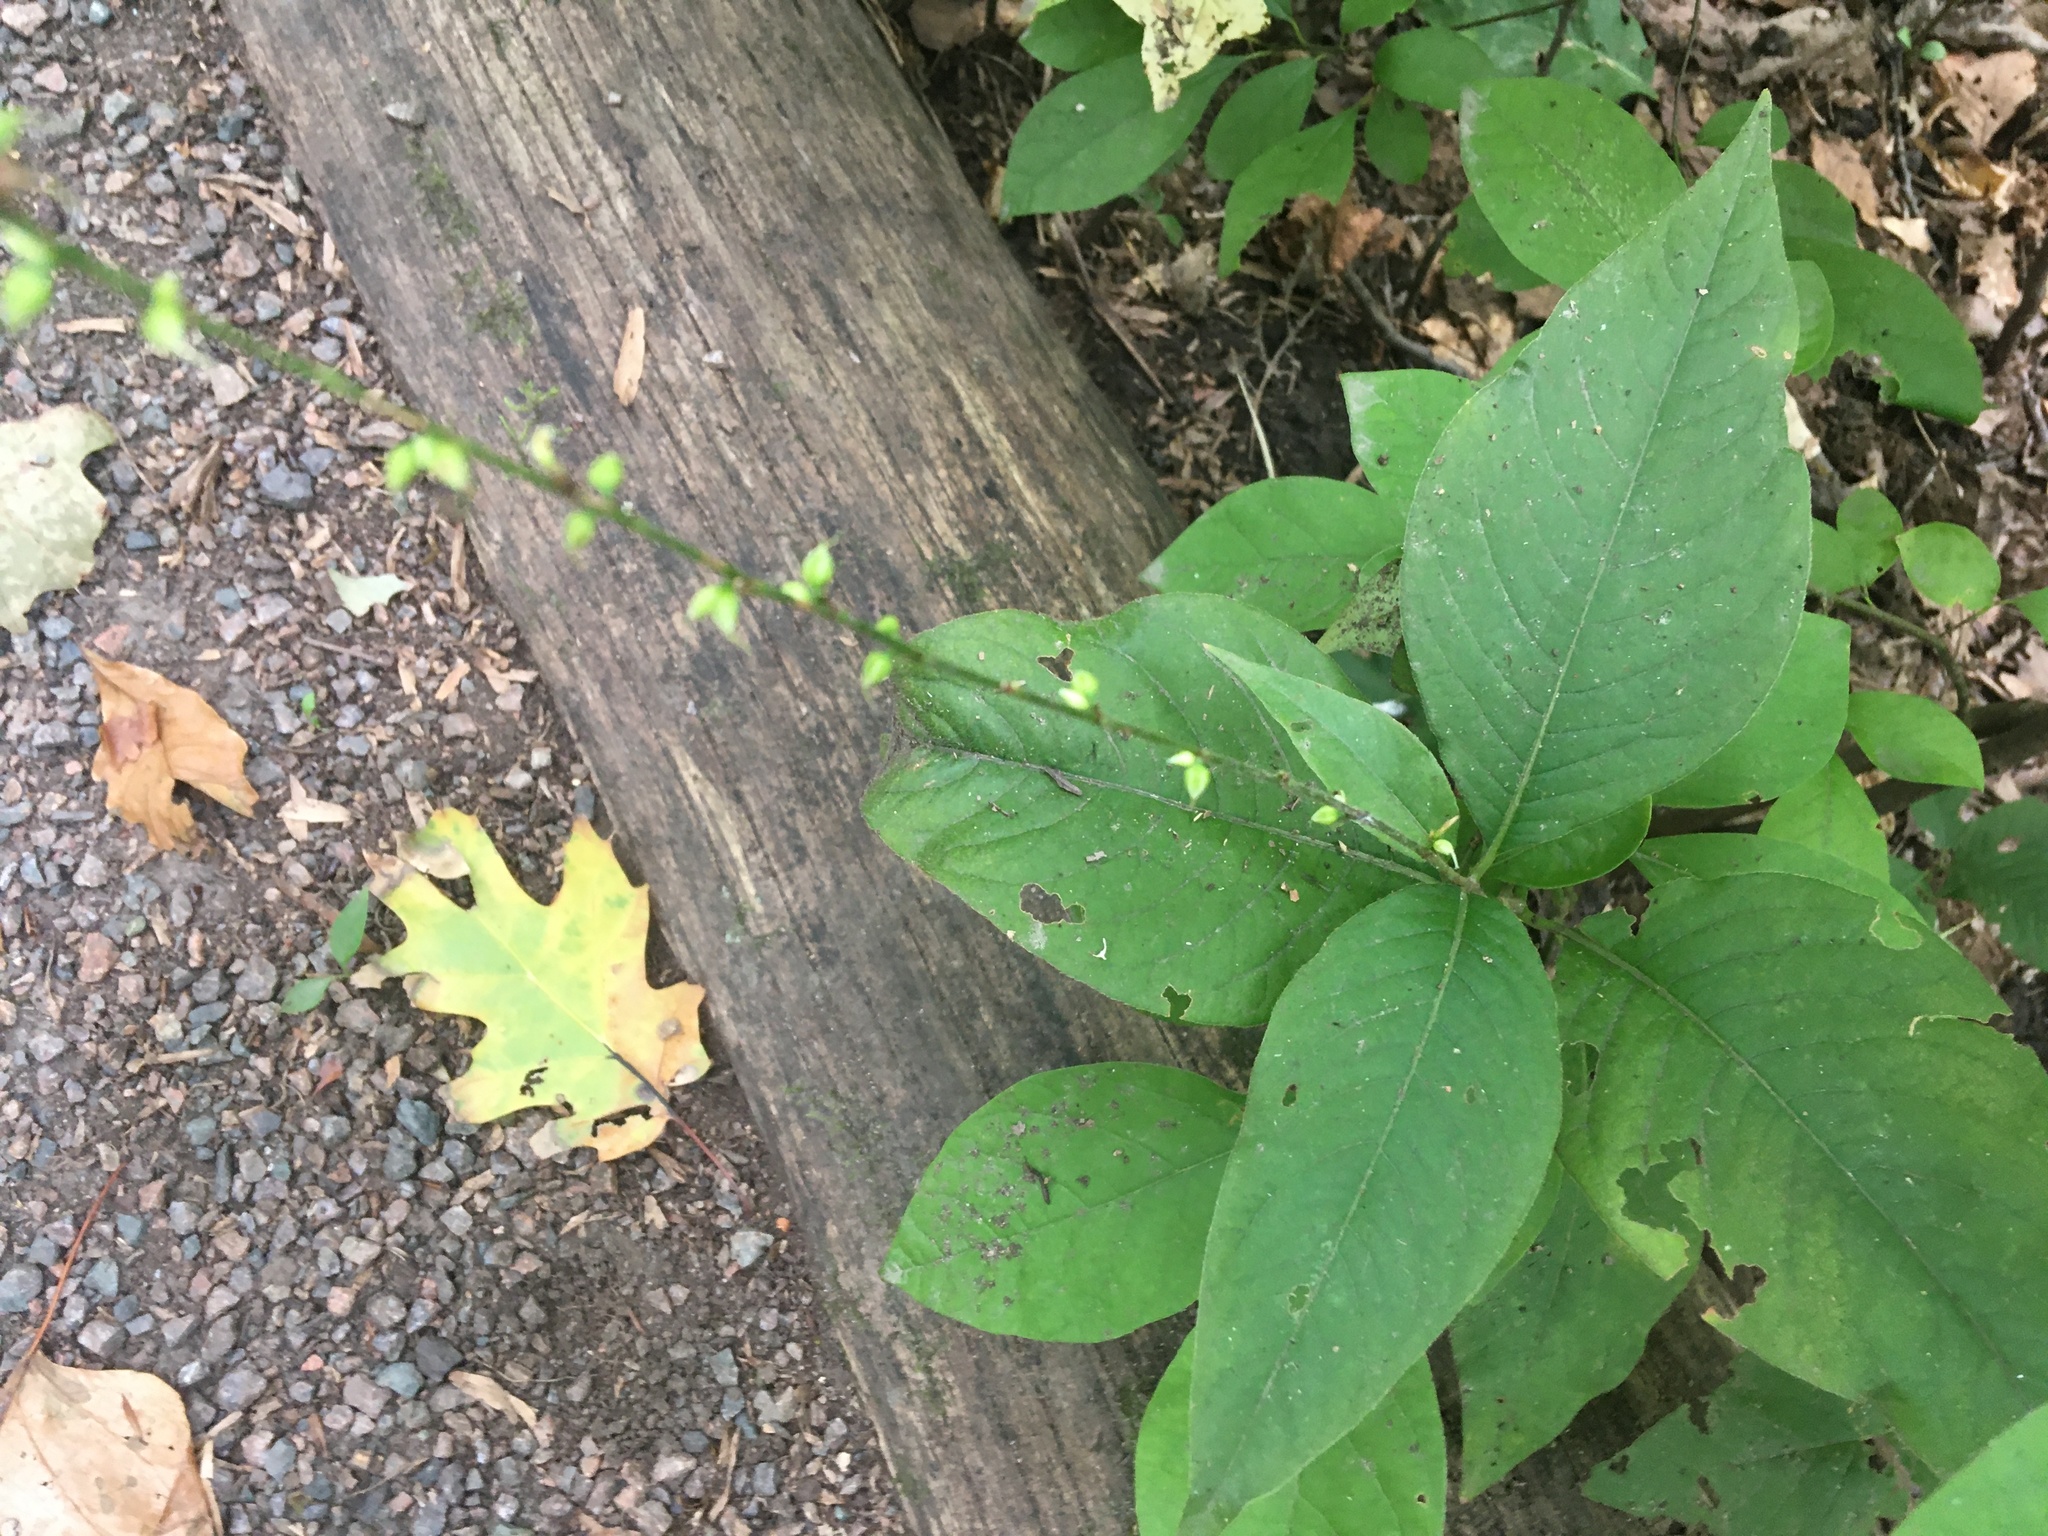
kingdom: Plantae
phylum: Tracheophyta
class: Magnoliopsida
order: Caryophyllales
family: Polygonaceae
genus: Persicaria
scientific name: Persicaria virginiana
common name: Jumpseed
